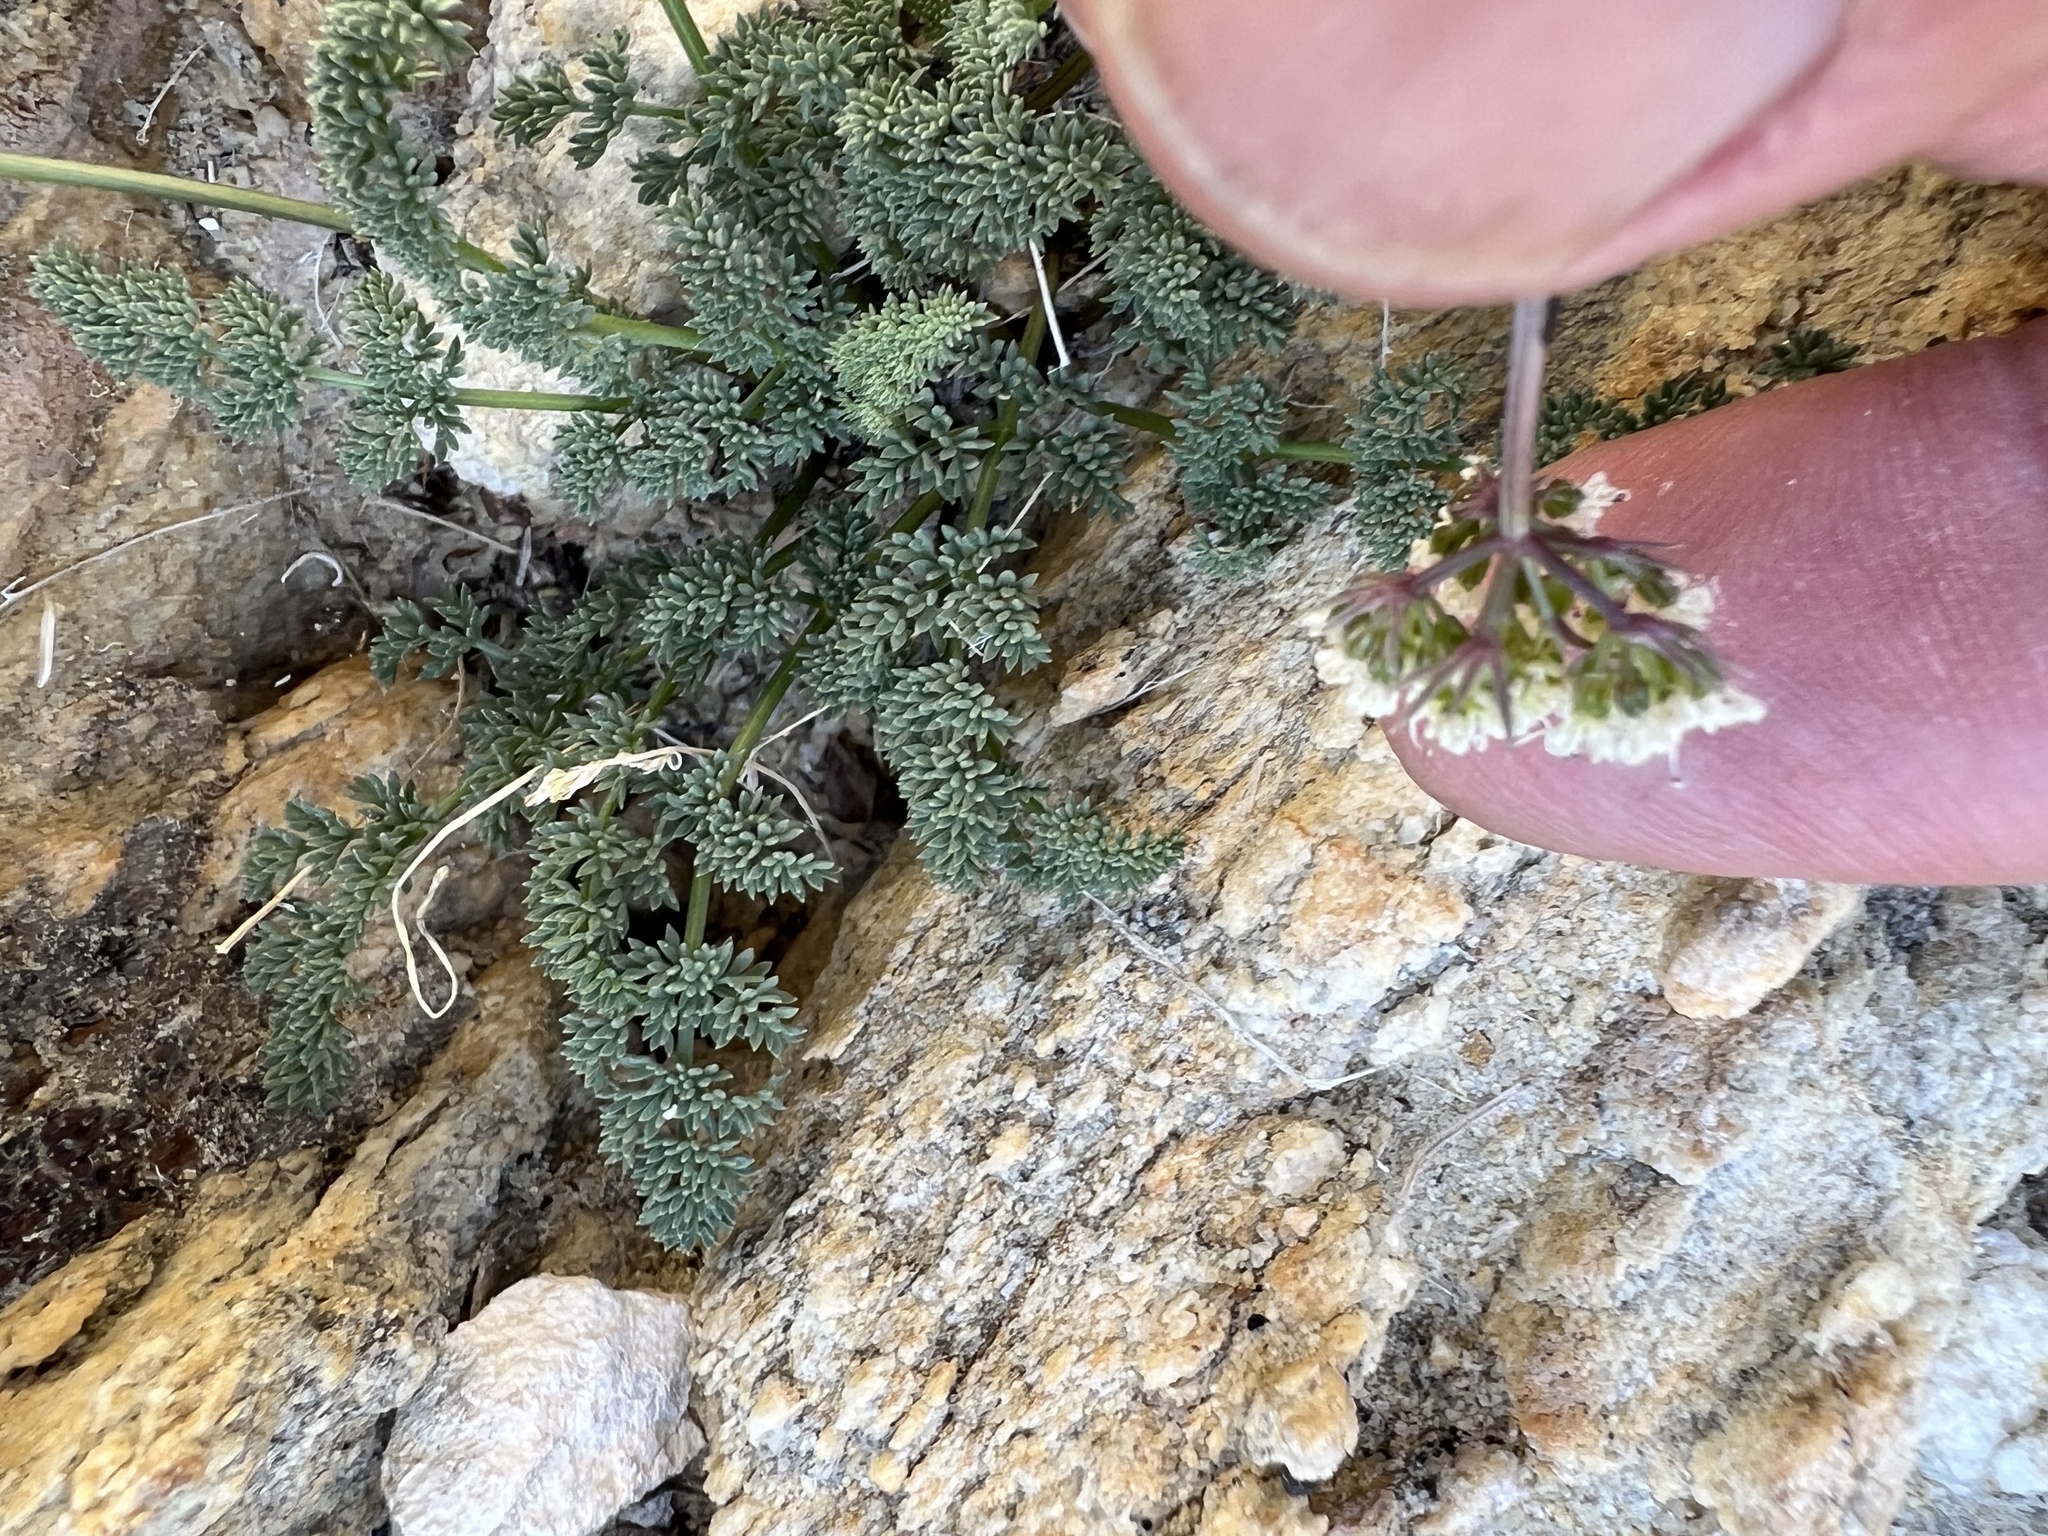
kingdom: Plantae
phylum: Tracheophyta
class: Magnoliopsida
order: Apiales
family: Apiaceae
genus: Aulospermum
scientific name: Aulospermum aboriginum
